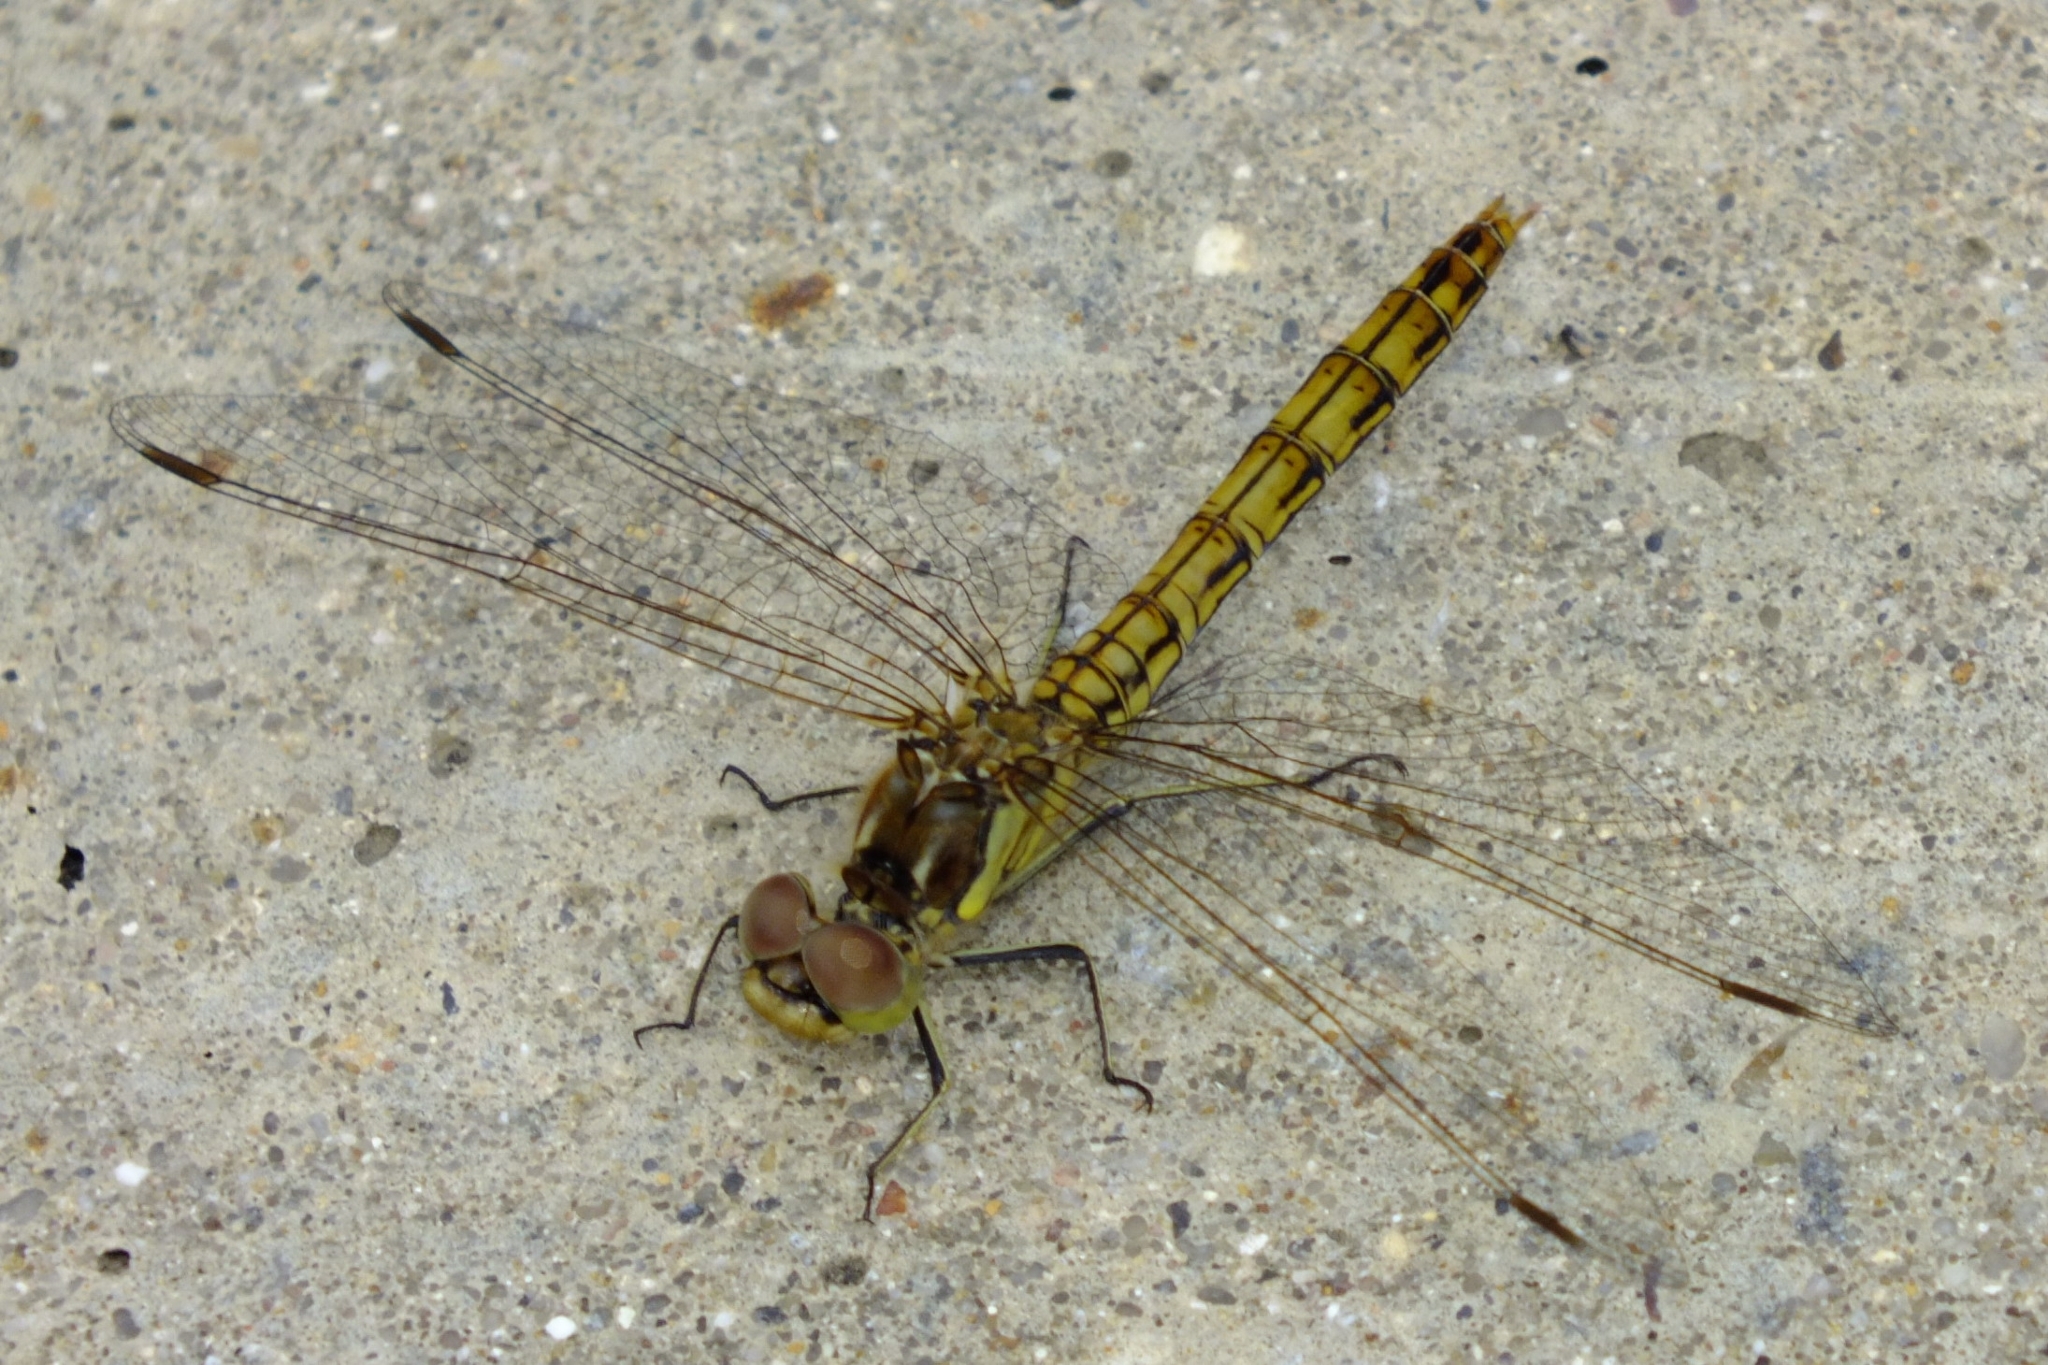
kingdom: Animalia
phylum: Arthropoda
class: Insecta
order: Odonata
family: Libellulidae
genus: Sympetrum
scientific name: Sympetrum vulgatum
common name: Vagrant darter
